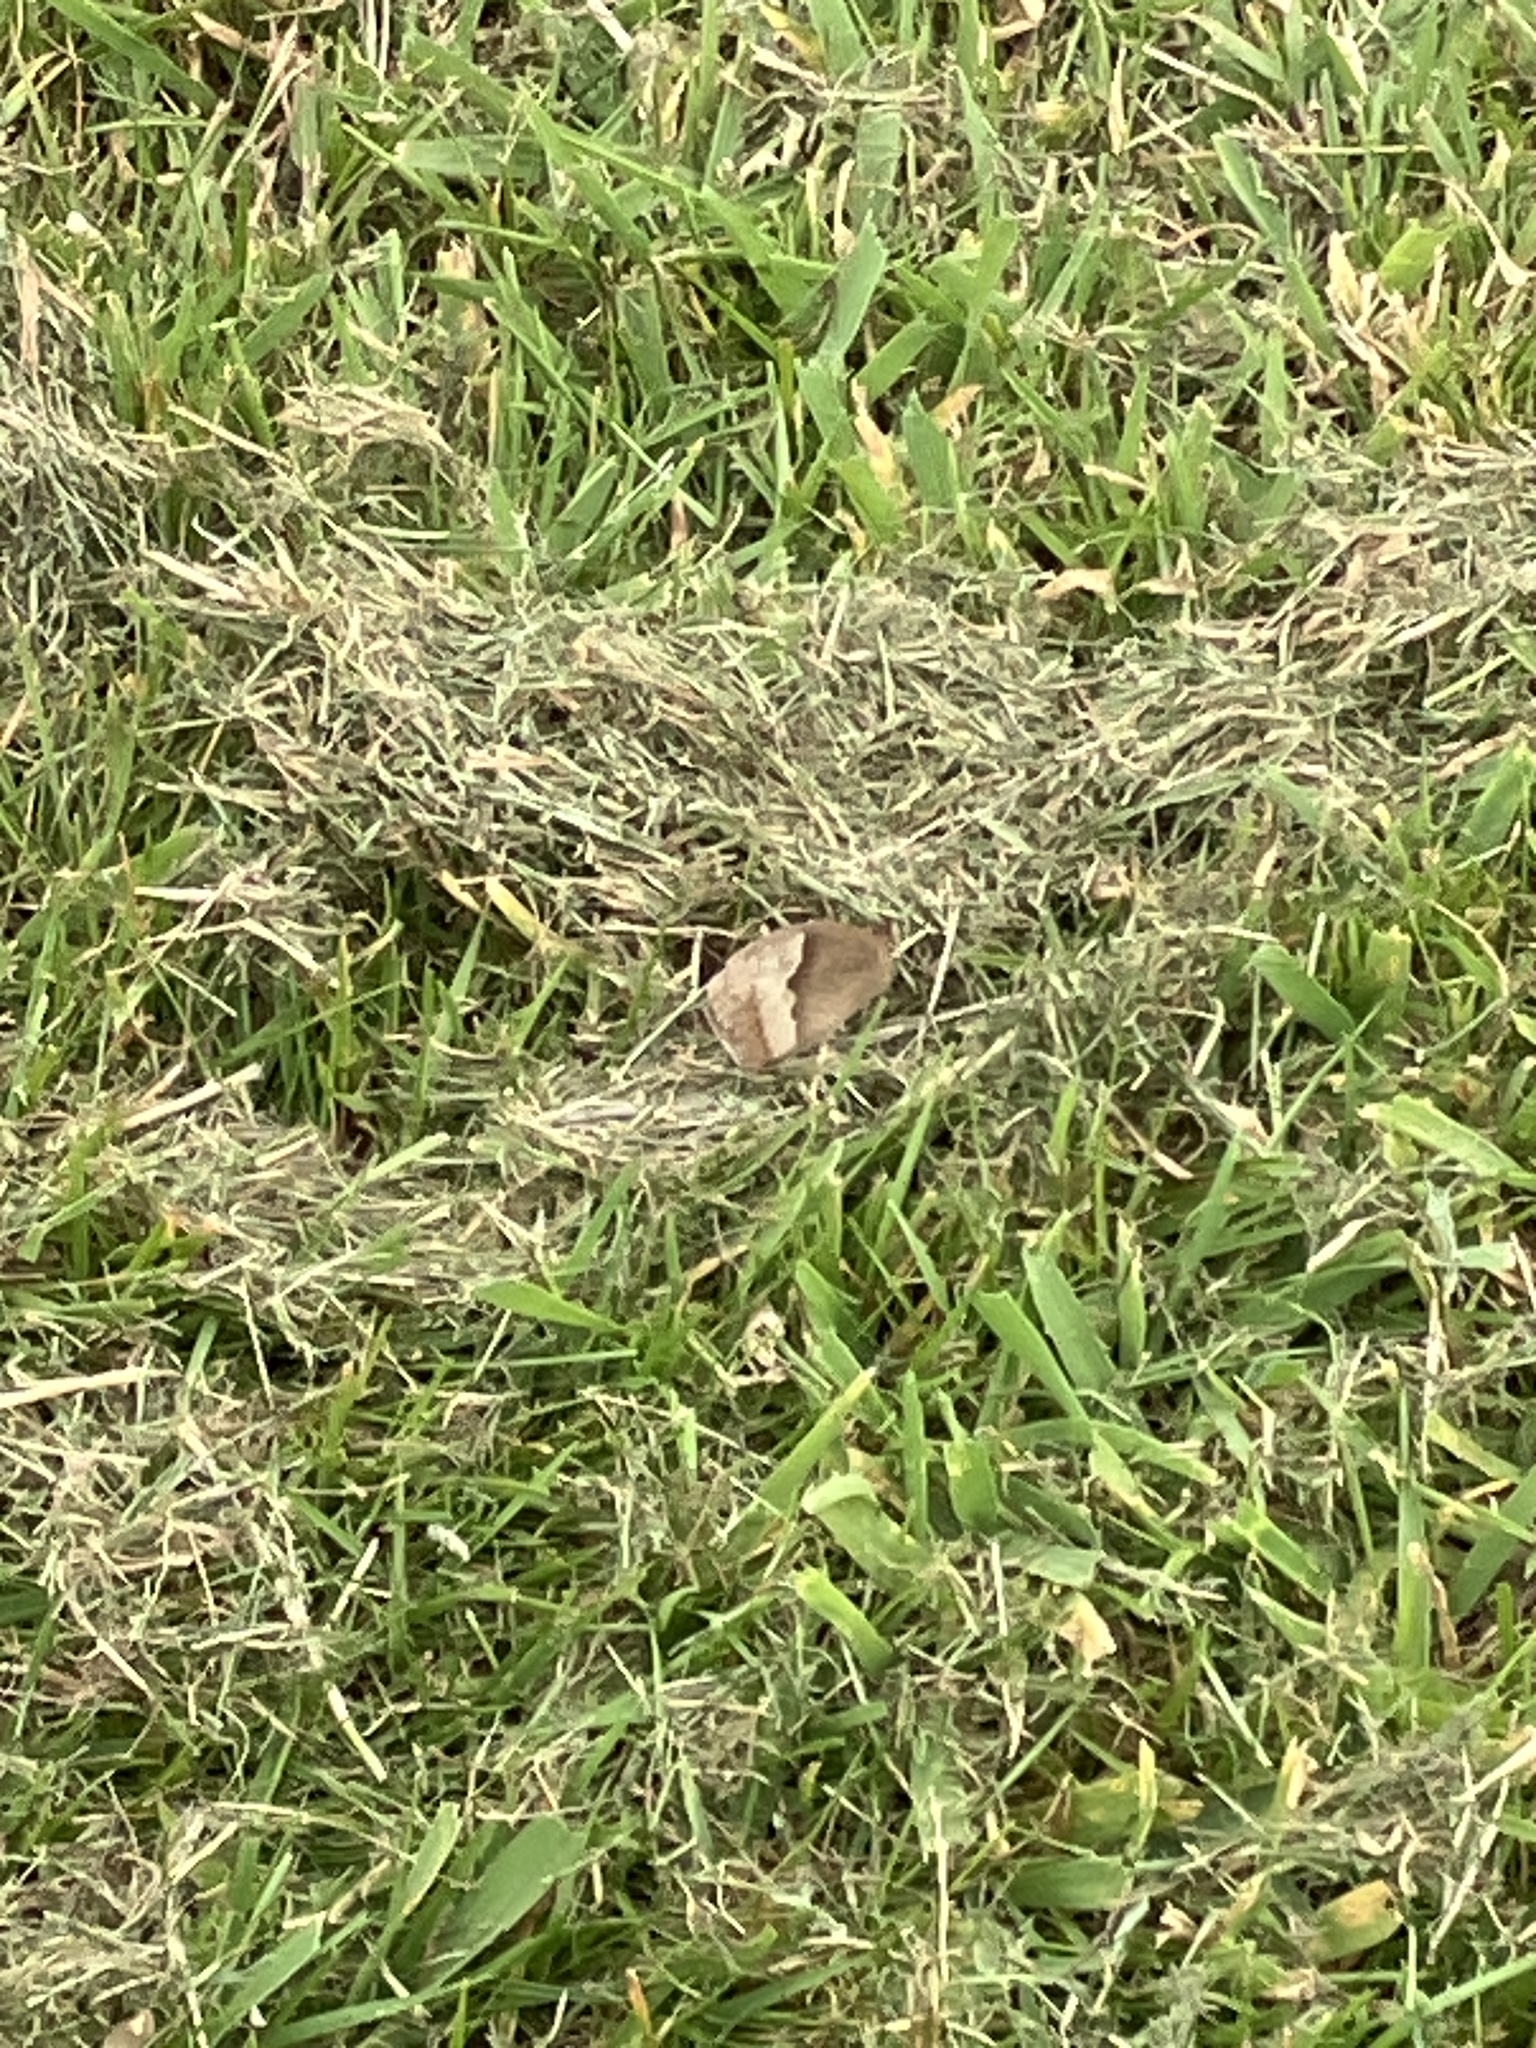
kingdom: Animalia
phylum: Arthropoda
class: Insecta
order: Lepidoptera
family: Nymphalidae
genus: Maniola
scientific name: Maniola jurtina
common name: Meadow brown
